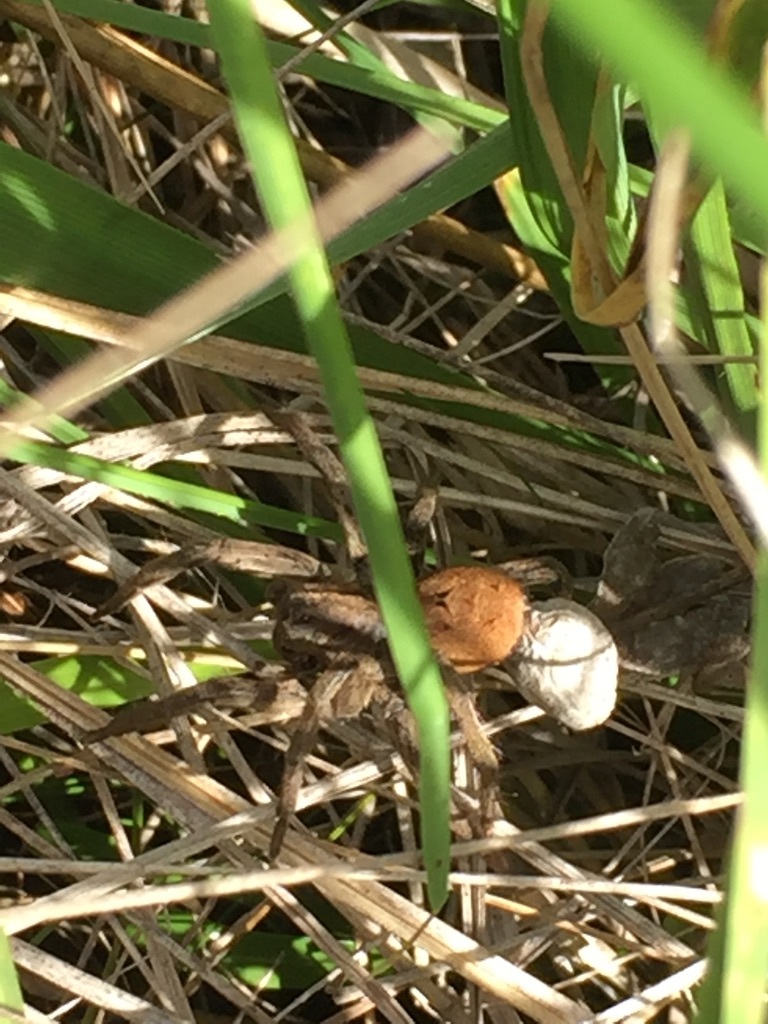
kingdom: Animalia
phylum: Arthropoda
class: Arachnida
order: Araneae
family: Lycosidae
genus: Lycosa
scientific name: Lycosa erythrognatha
